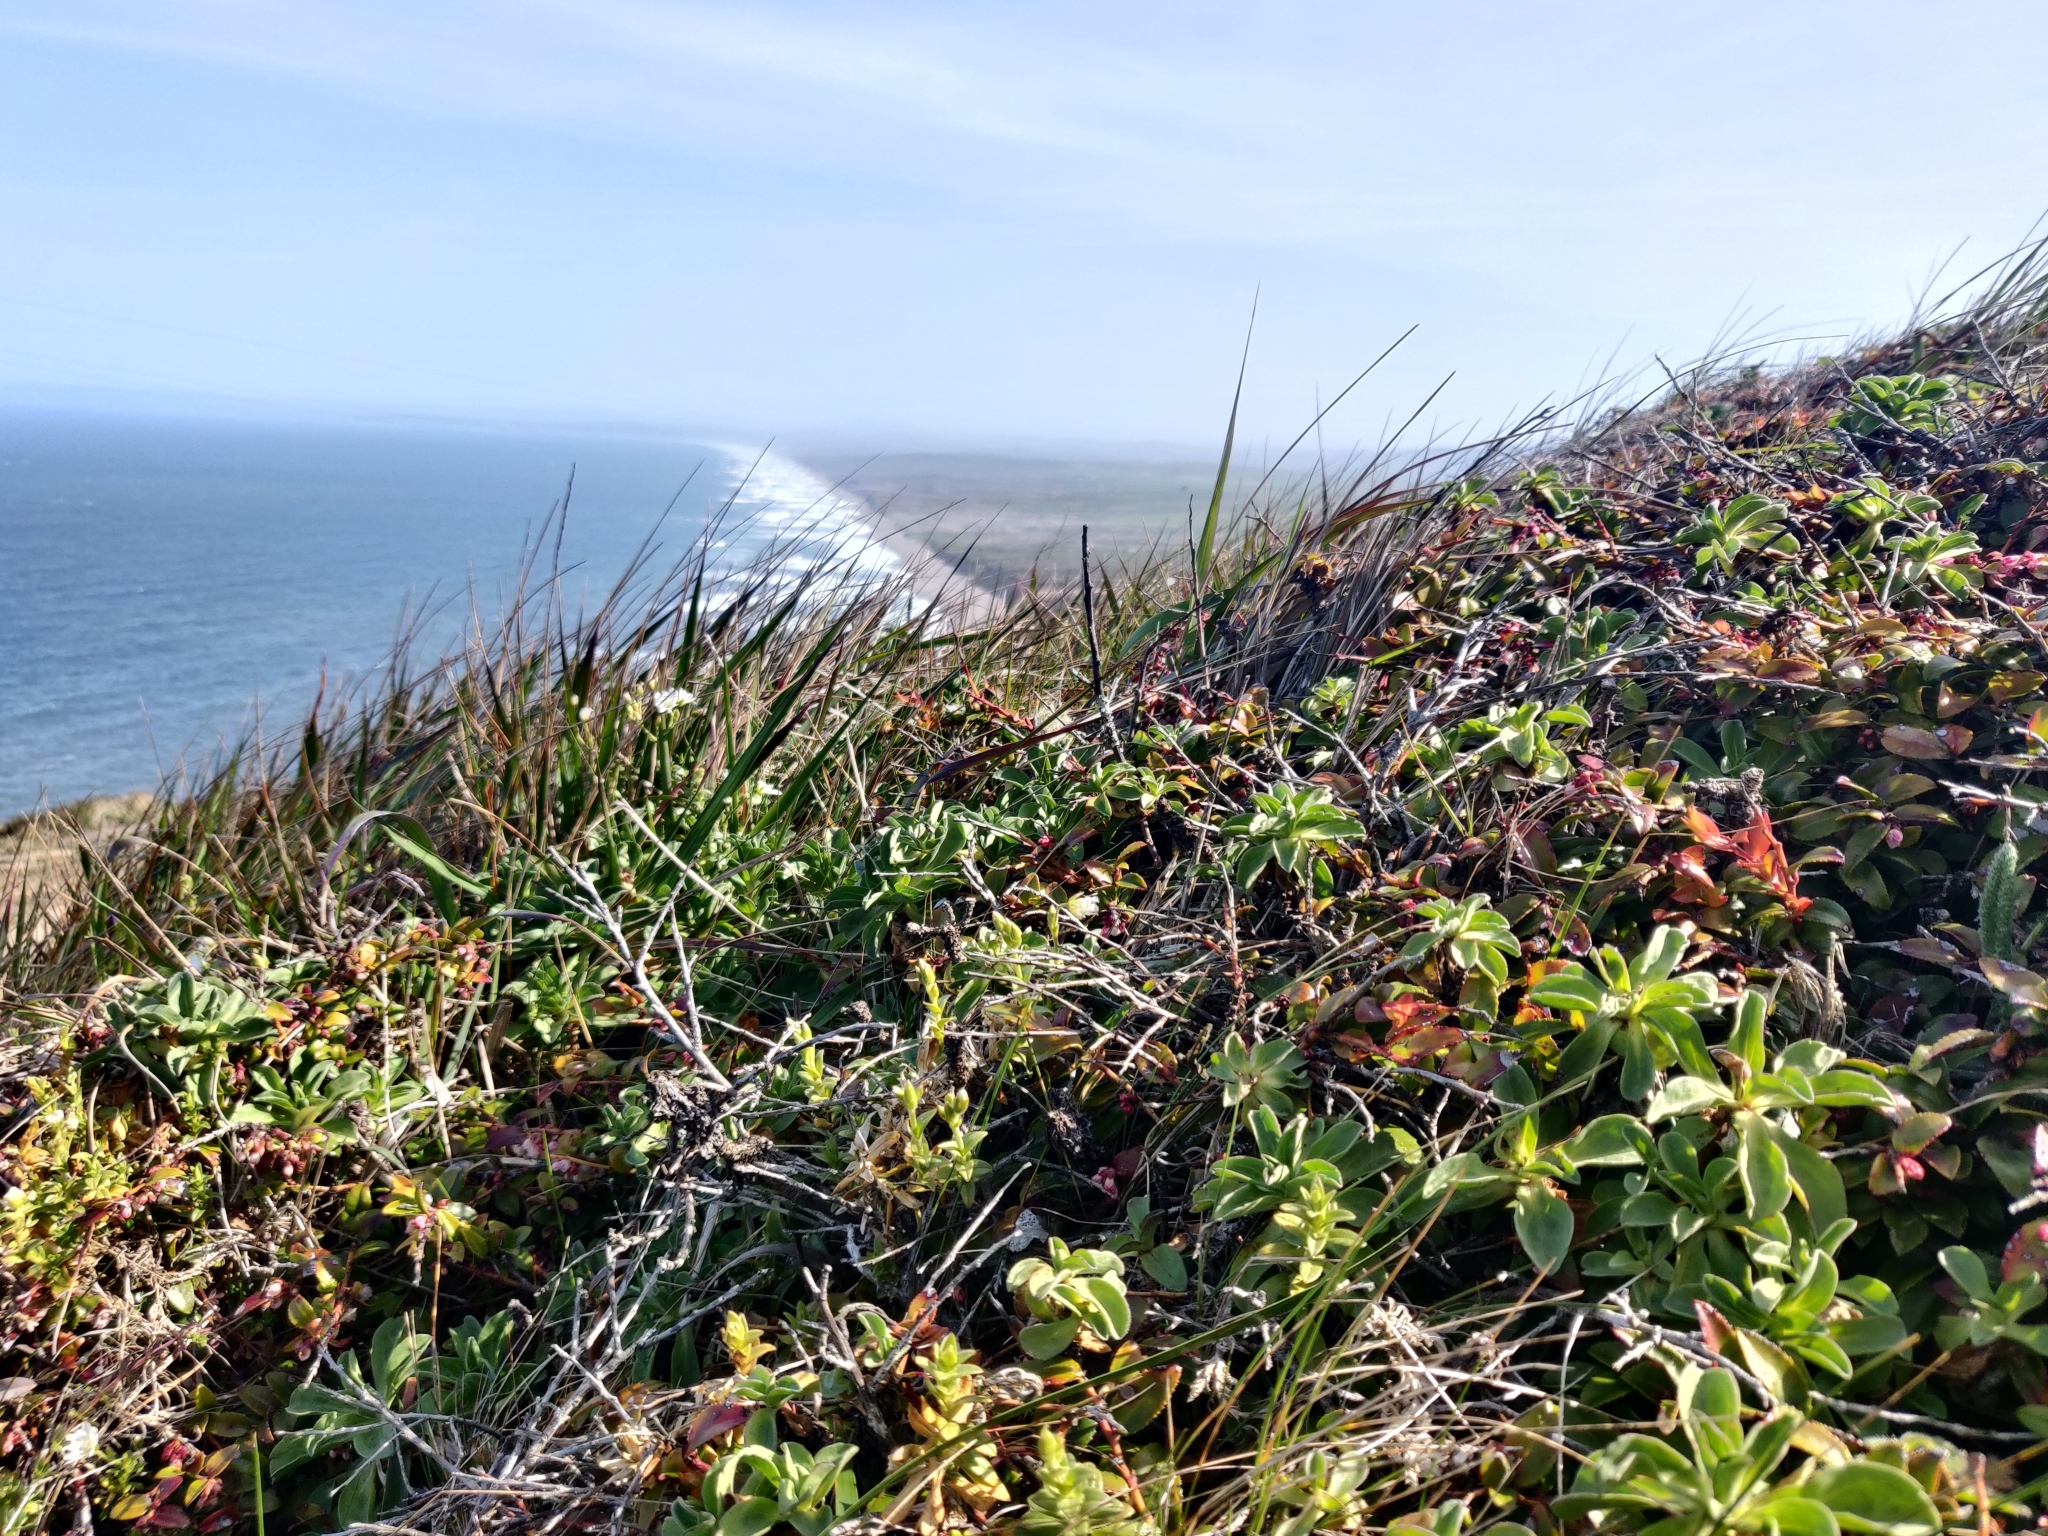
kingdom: Plantae
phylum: Tracheophyta
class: Magnoliopsida
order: Ericales
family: Ericaceae
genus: Vaccinium
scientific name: Vaccinium ovatum
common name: California-huckleberry
